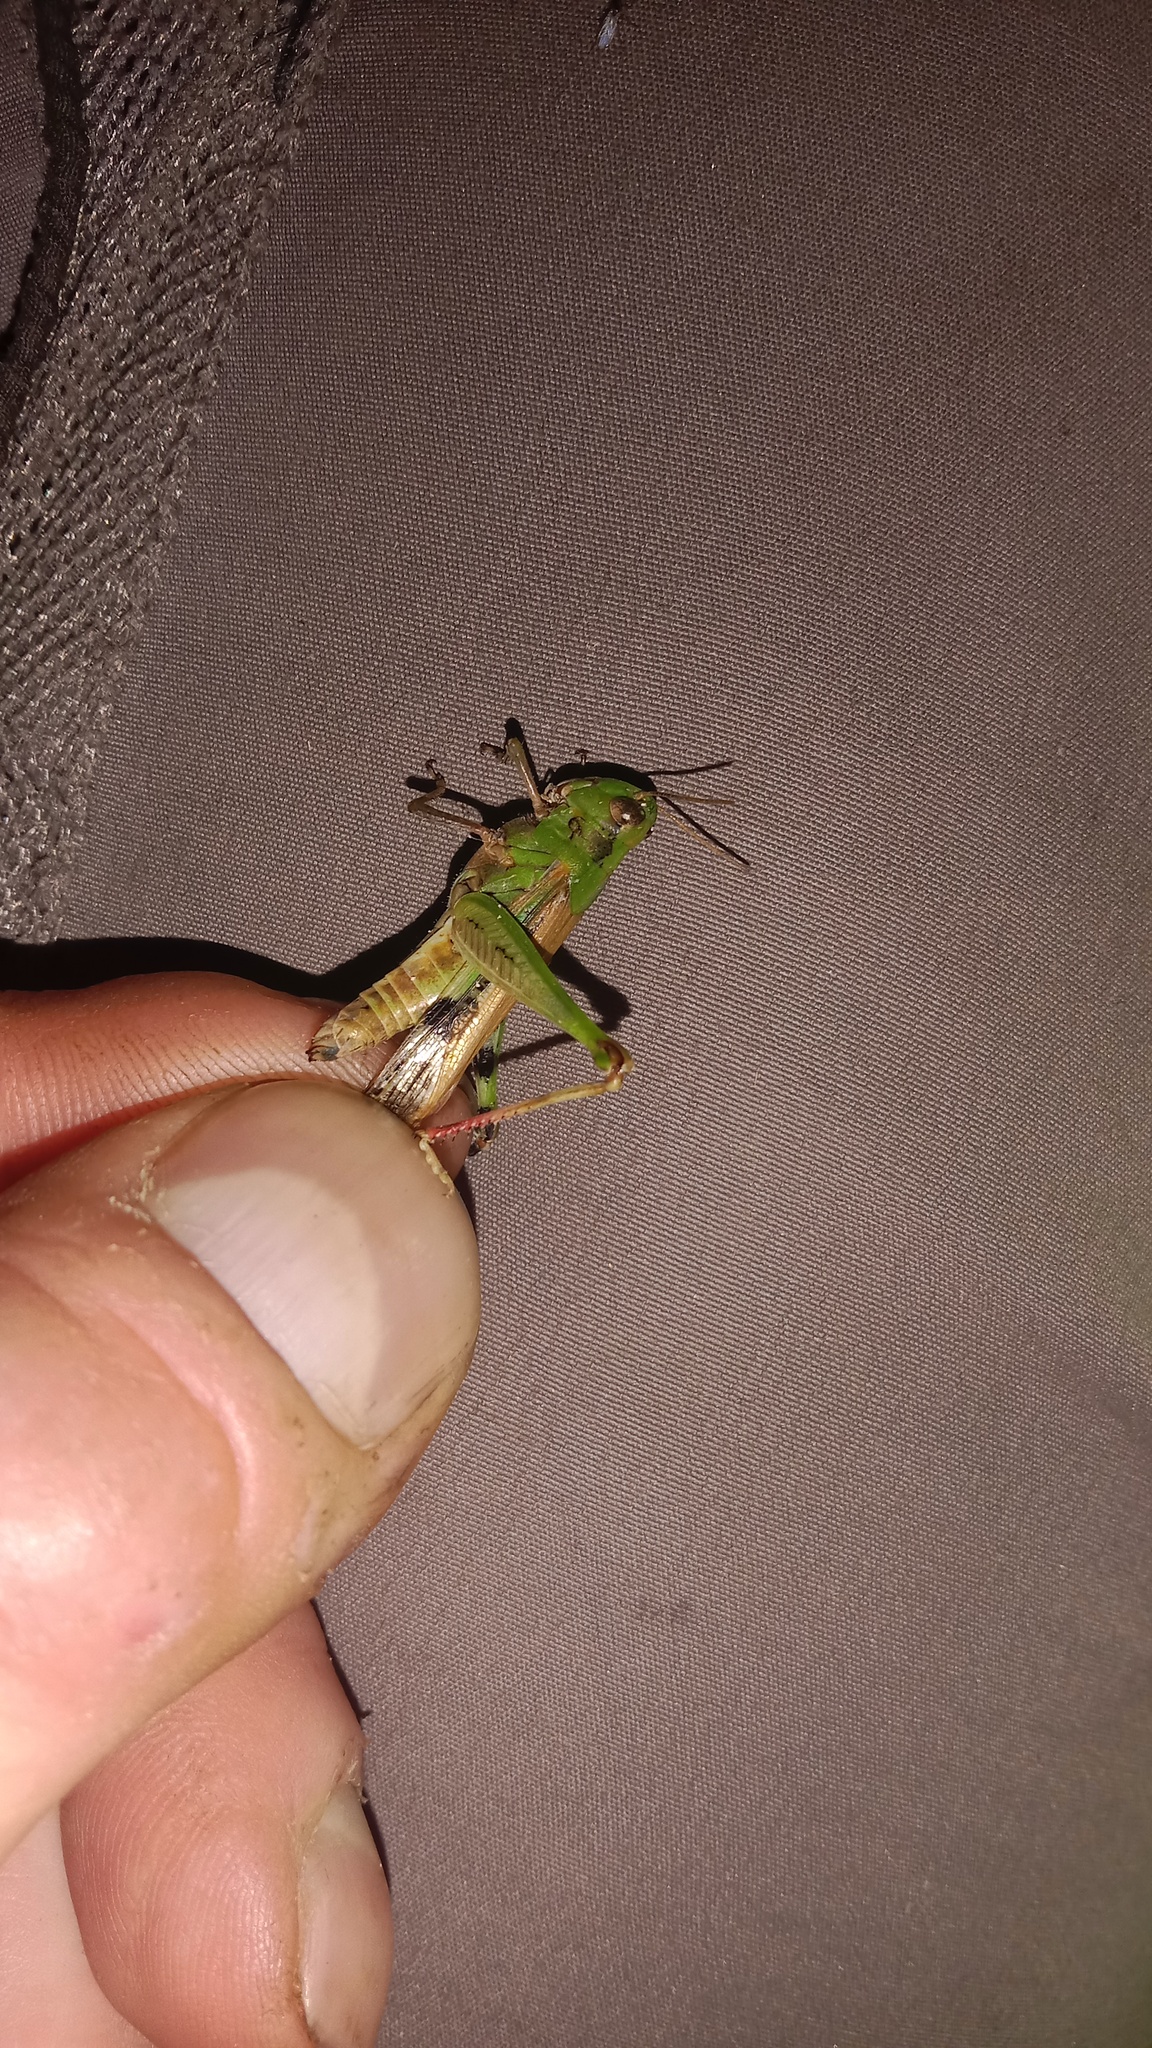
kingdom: Animalia
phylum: Arthropoda
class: Insecta
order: Orthoptera
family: Acrididae
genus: Aiolopus
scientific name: Aiolopus thalassinus
